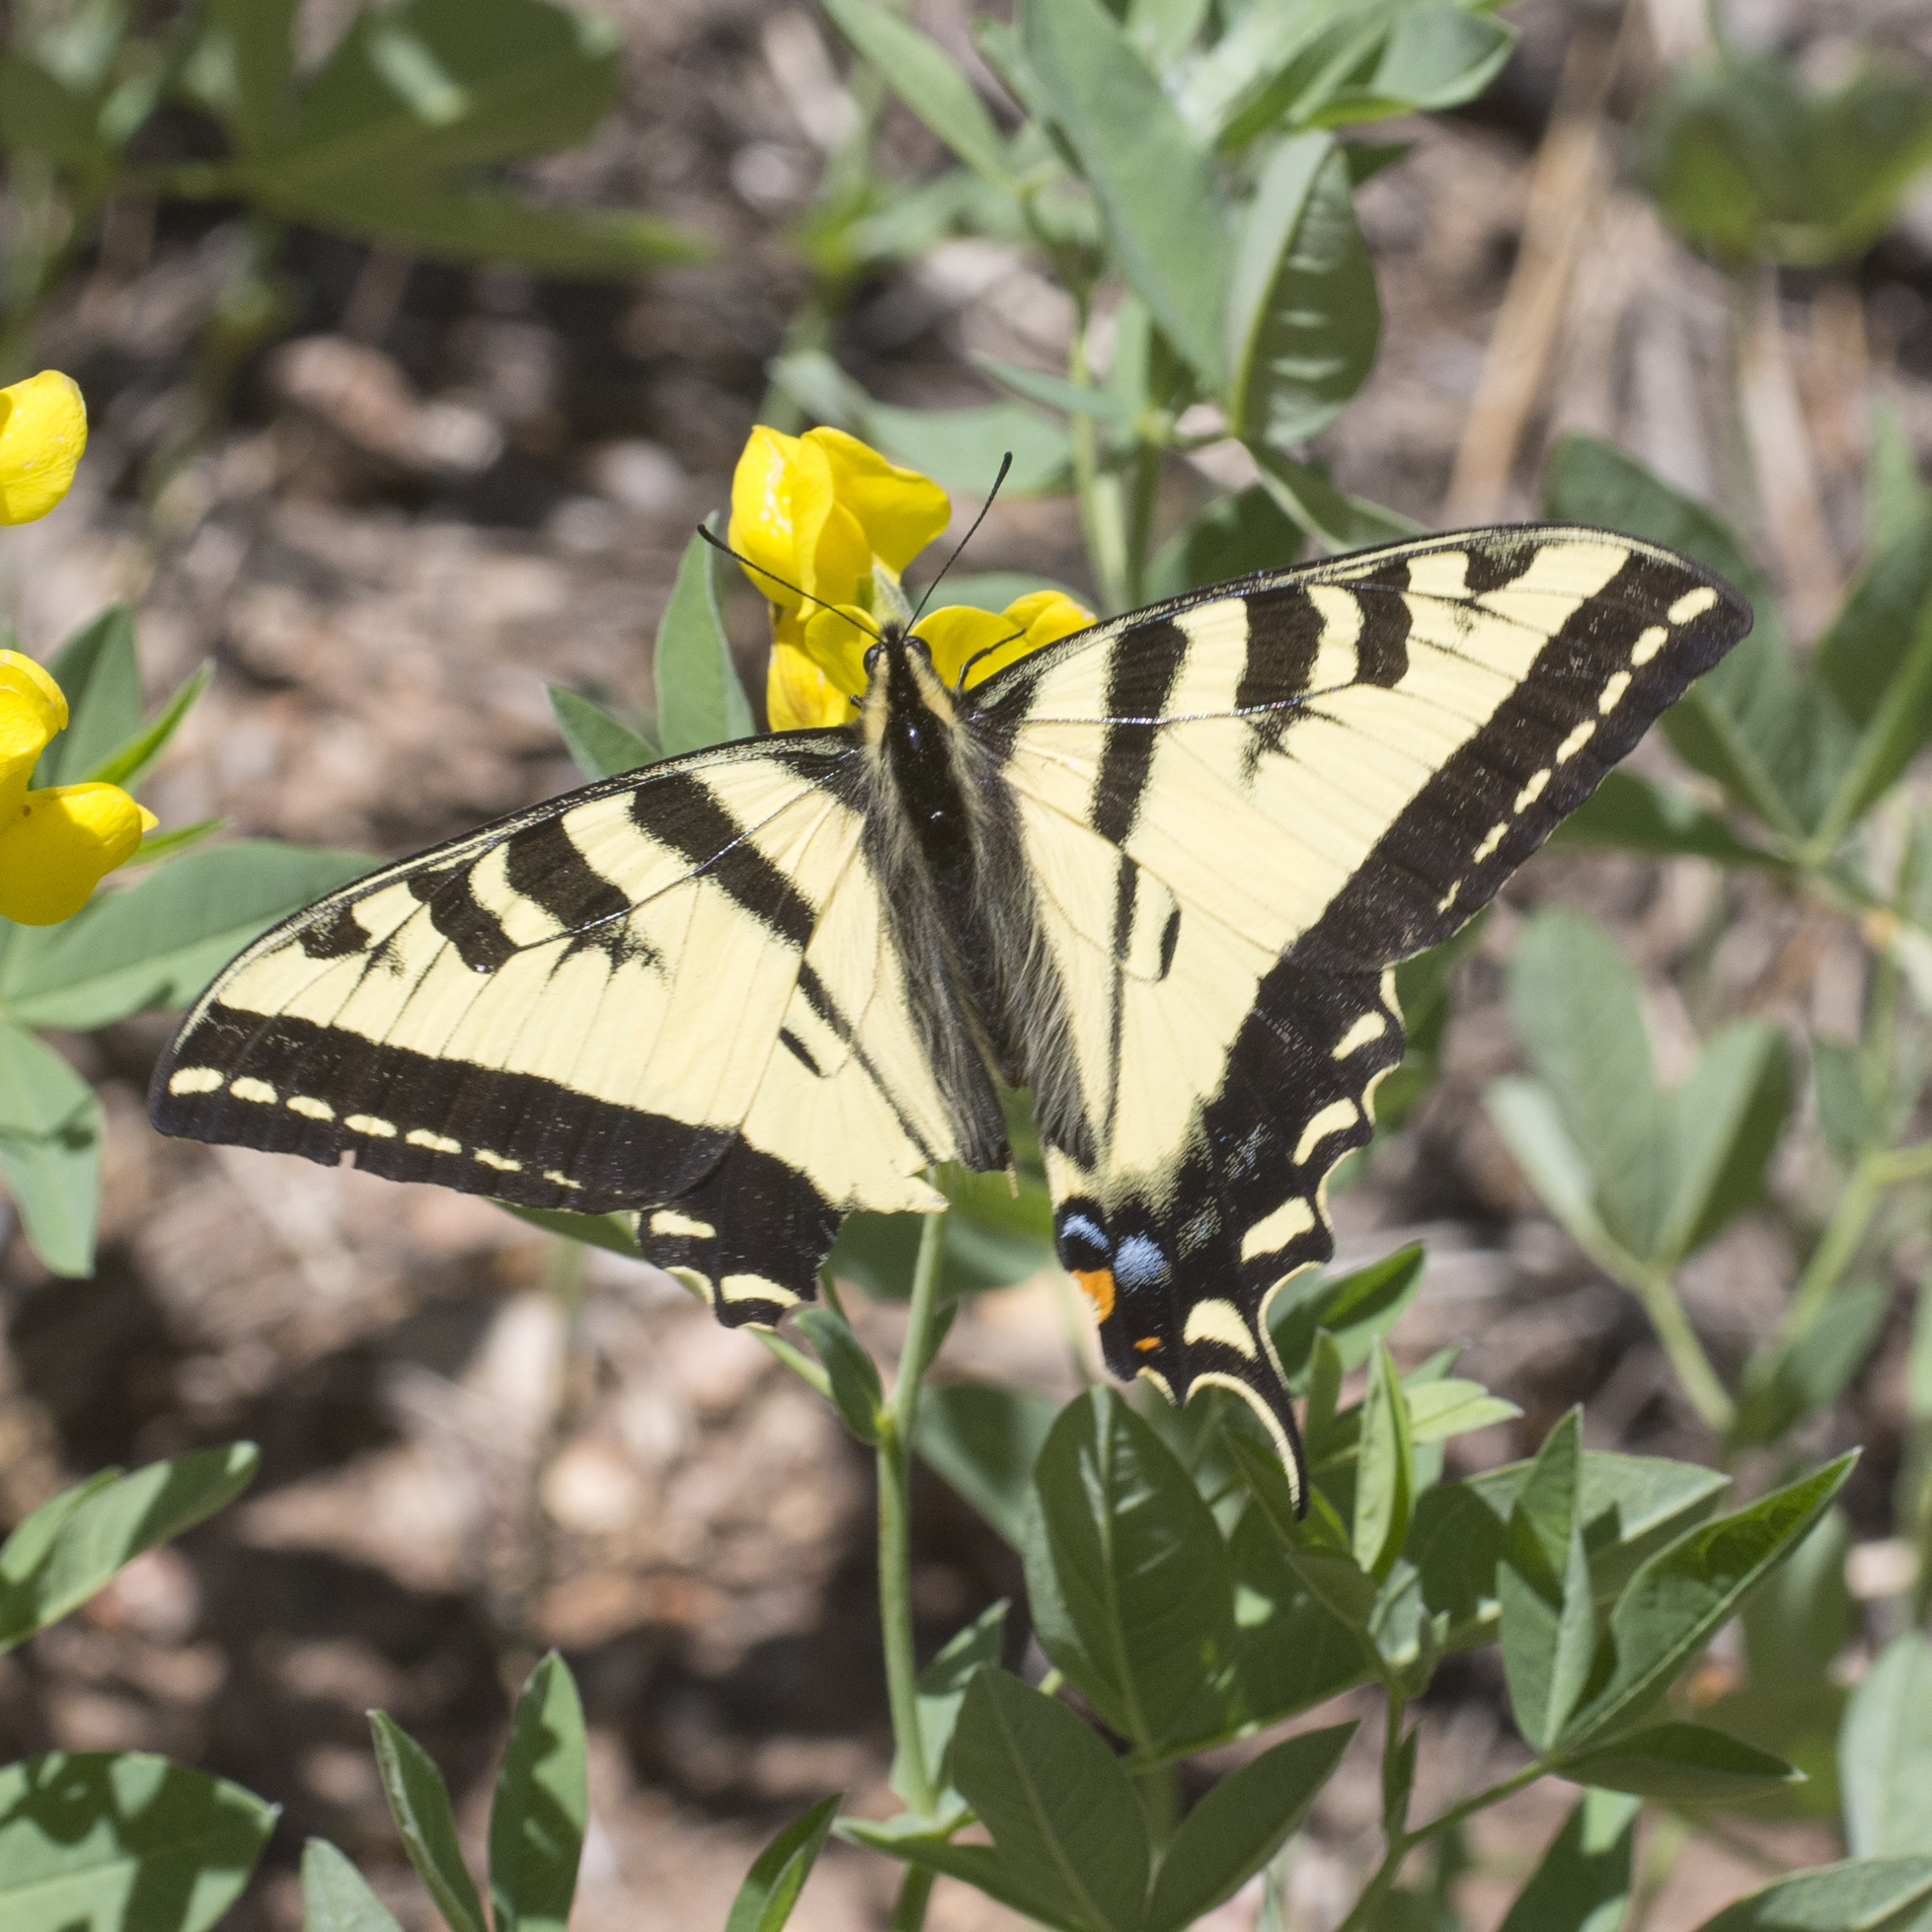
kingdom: Animalia
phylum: Arthropoda
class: Insecta
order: Lepidoptera
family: Papilionidae
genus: Papilio
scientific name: Papilio rutulus
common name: Western tiger swallowtail
